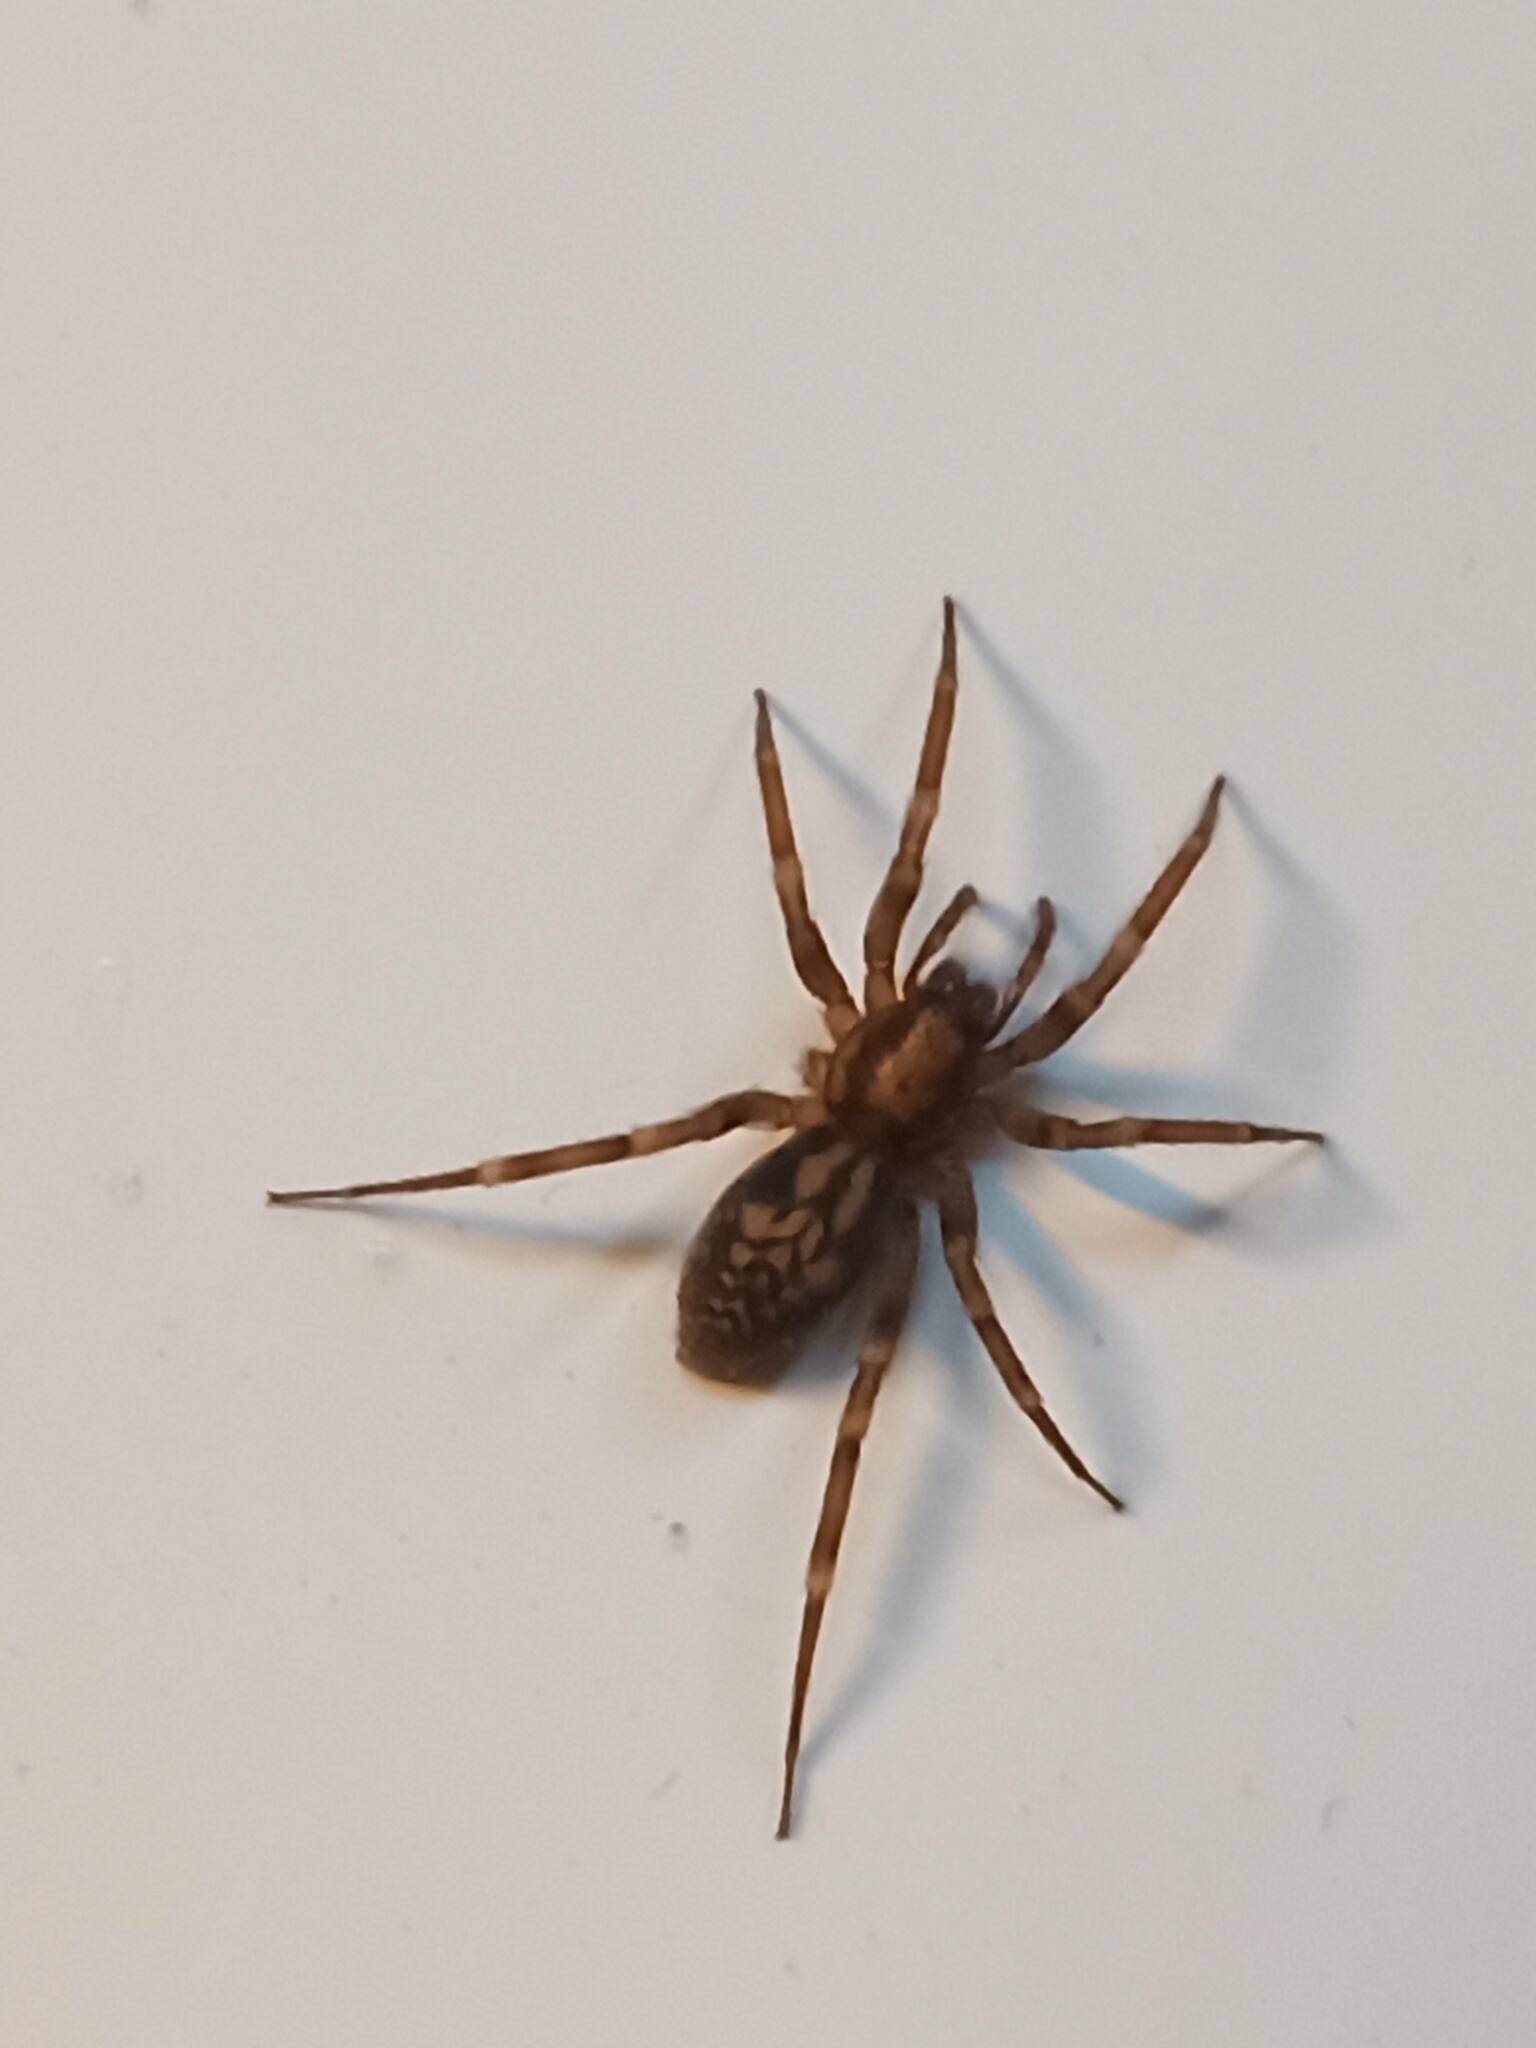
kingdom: Animalia
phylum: Arthropoda
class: Arachnida
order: Araneae
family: Liocranidae
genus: Liocranum
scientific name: Liocranum rupicola
